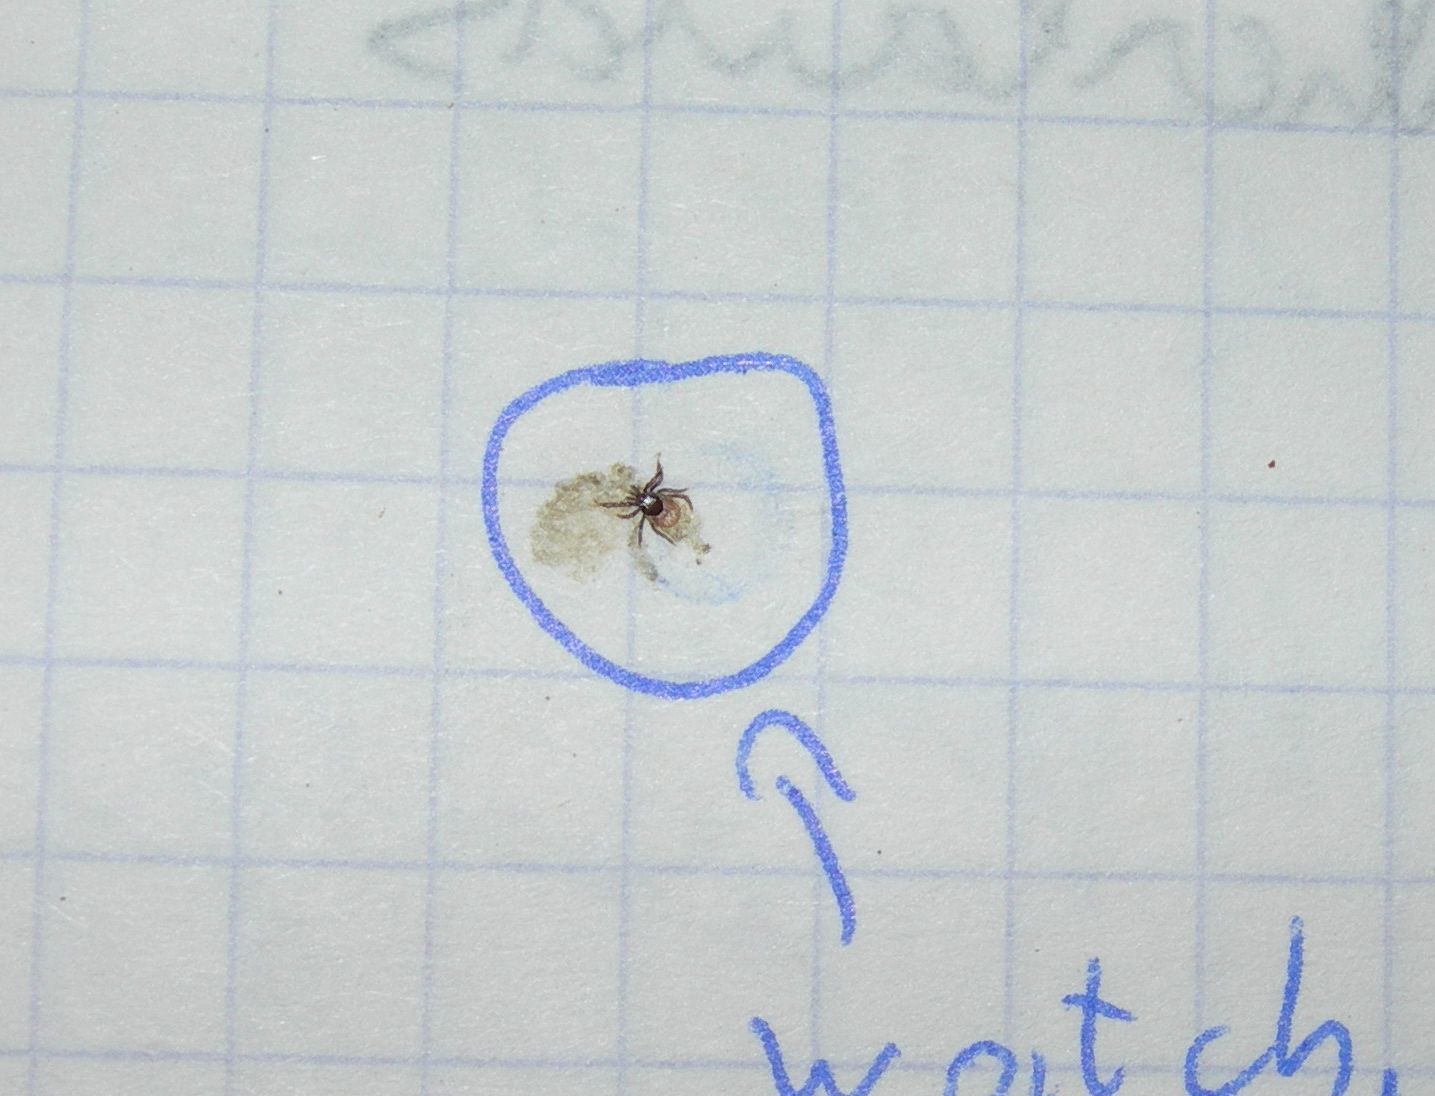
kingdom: Animalia
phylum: Arthropoda
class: Arachnida
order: Ixodida
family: Ixodidae
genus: Ixodes
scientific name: Ixodes ricinus
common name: Castor bean tick
